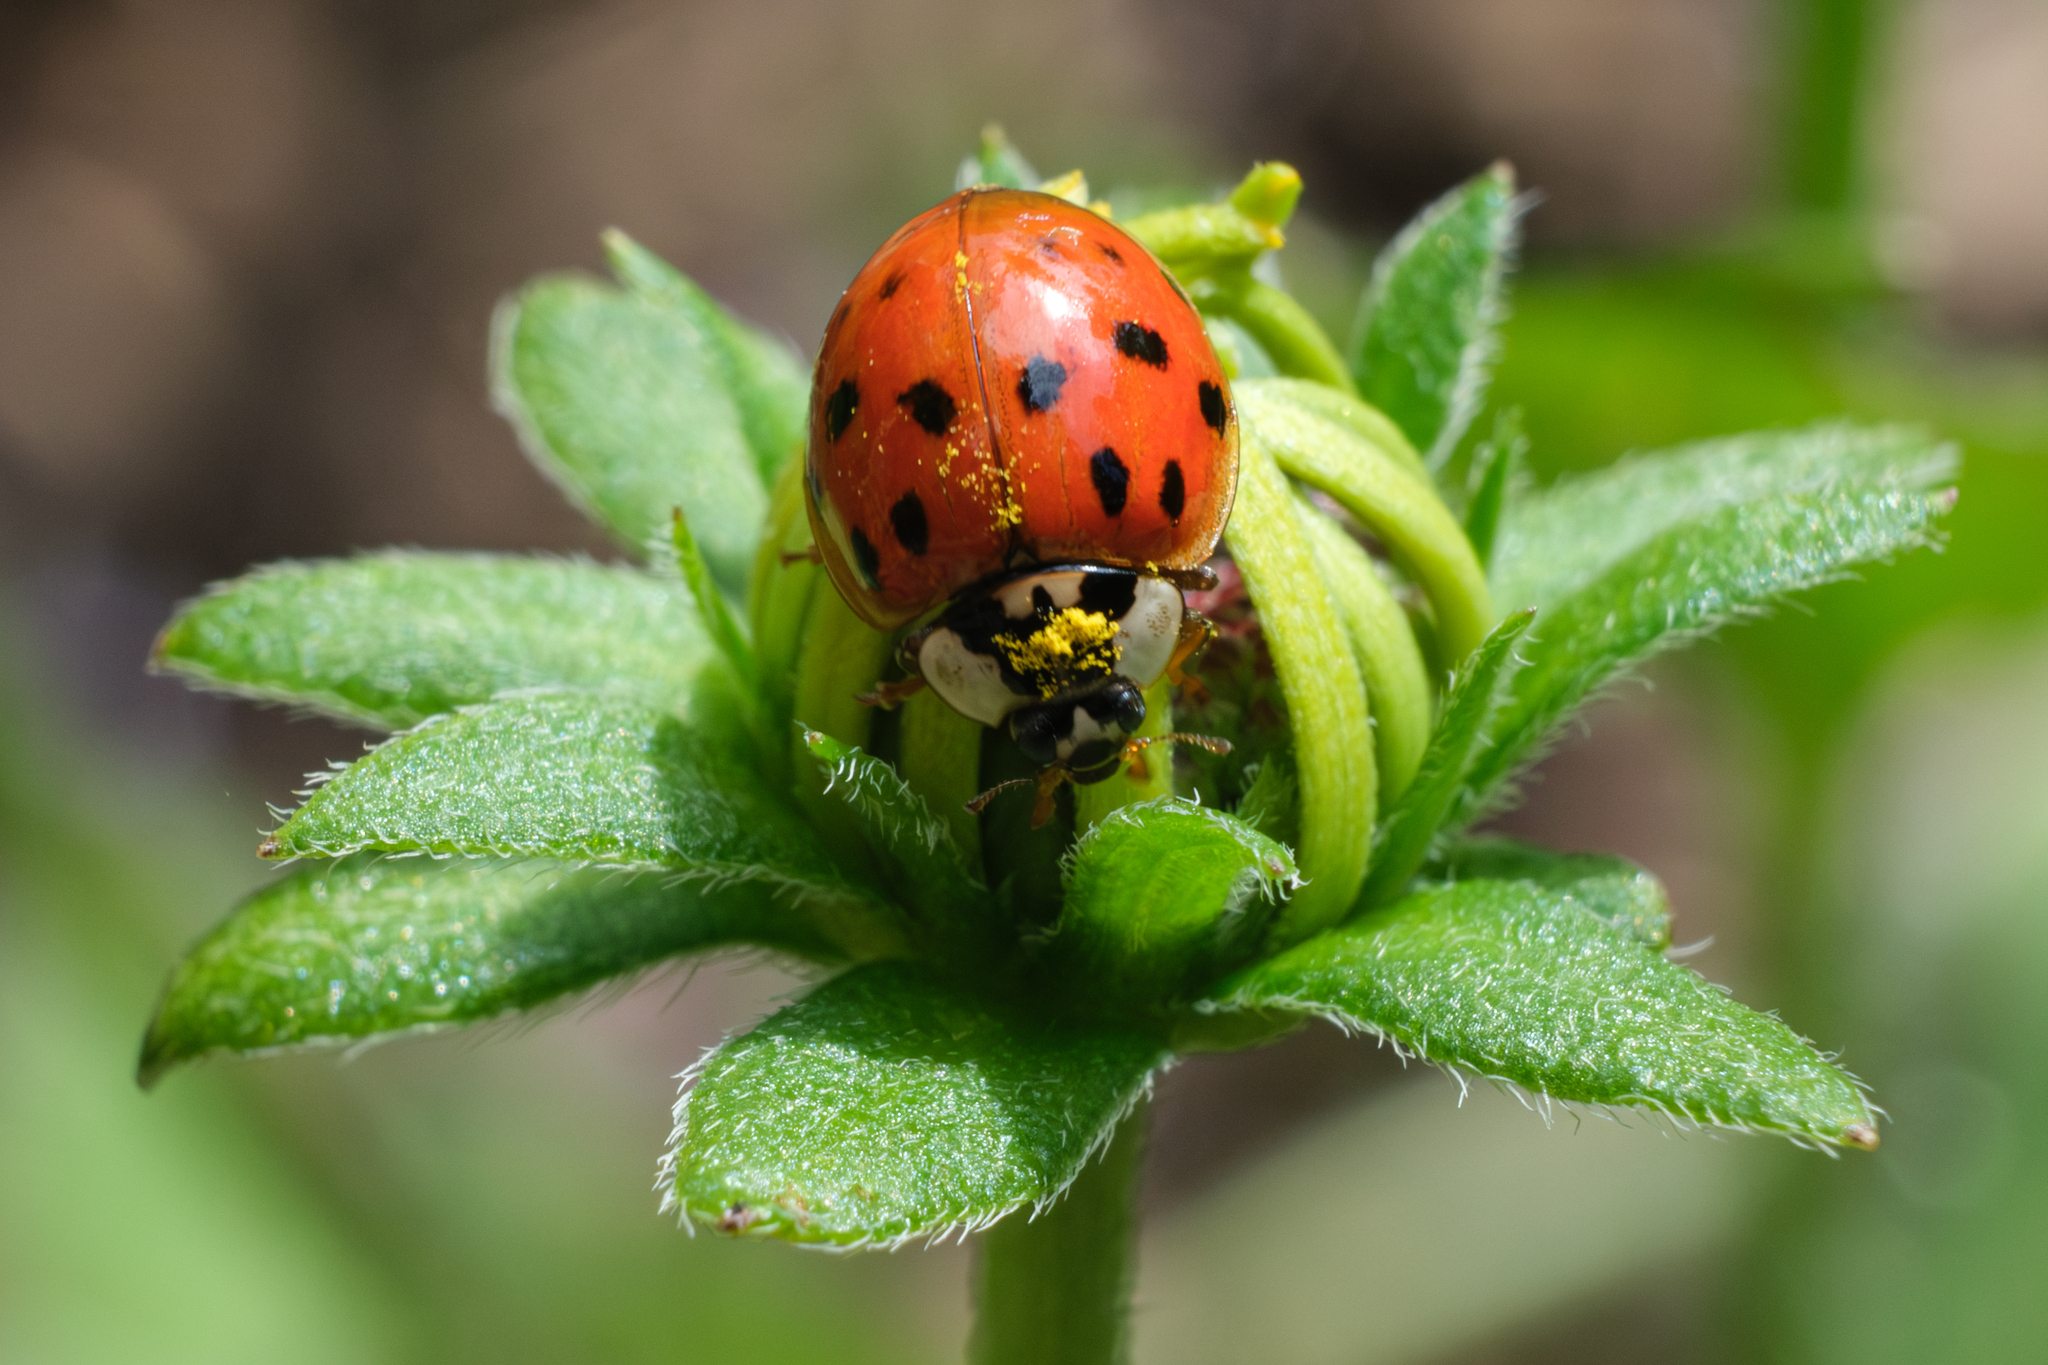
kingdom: Animalia
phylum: Arthropoda
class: Insecta
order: Coleoptera
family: Coccinellidae
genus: Harmonia
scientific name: Harmonia axyridis
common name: Harlequin ladybird
